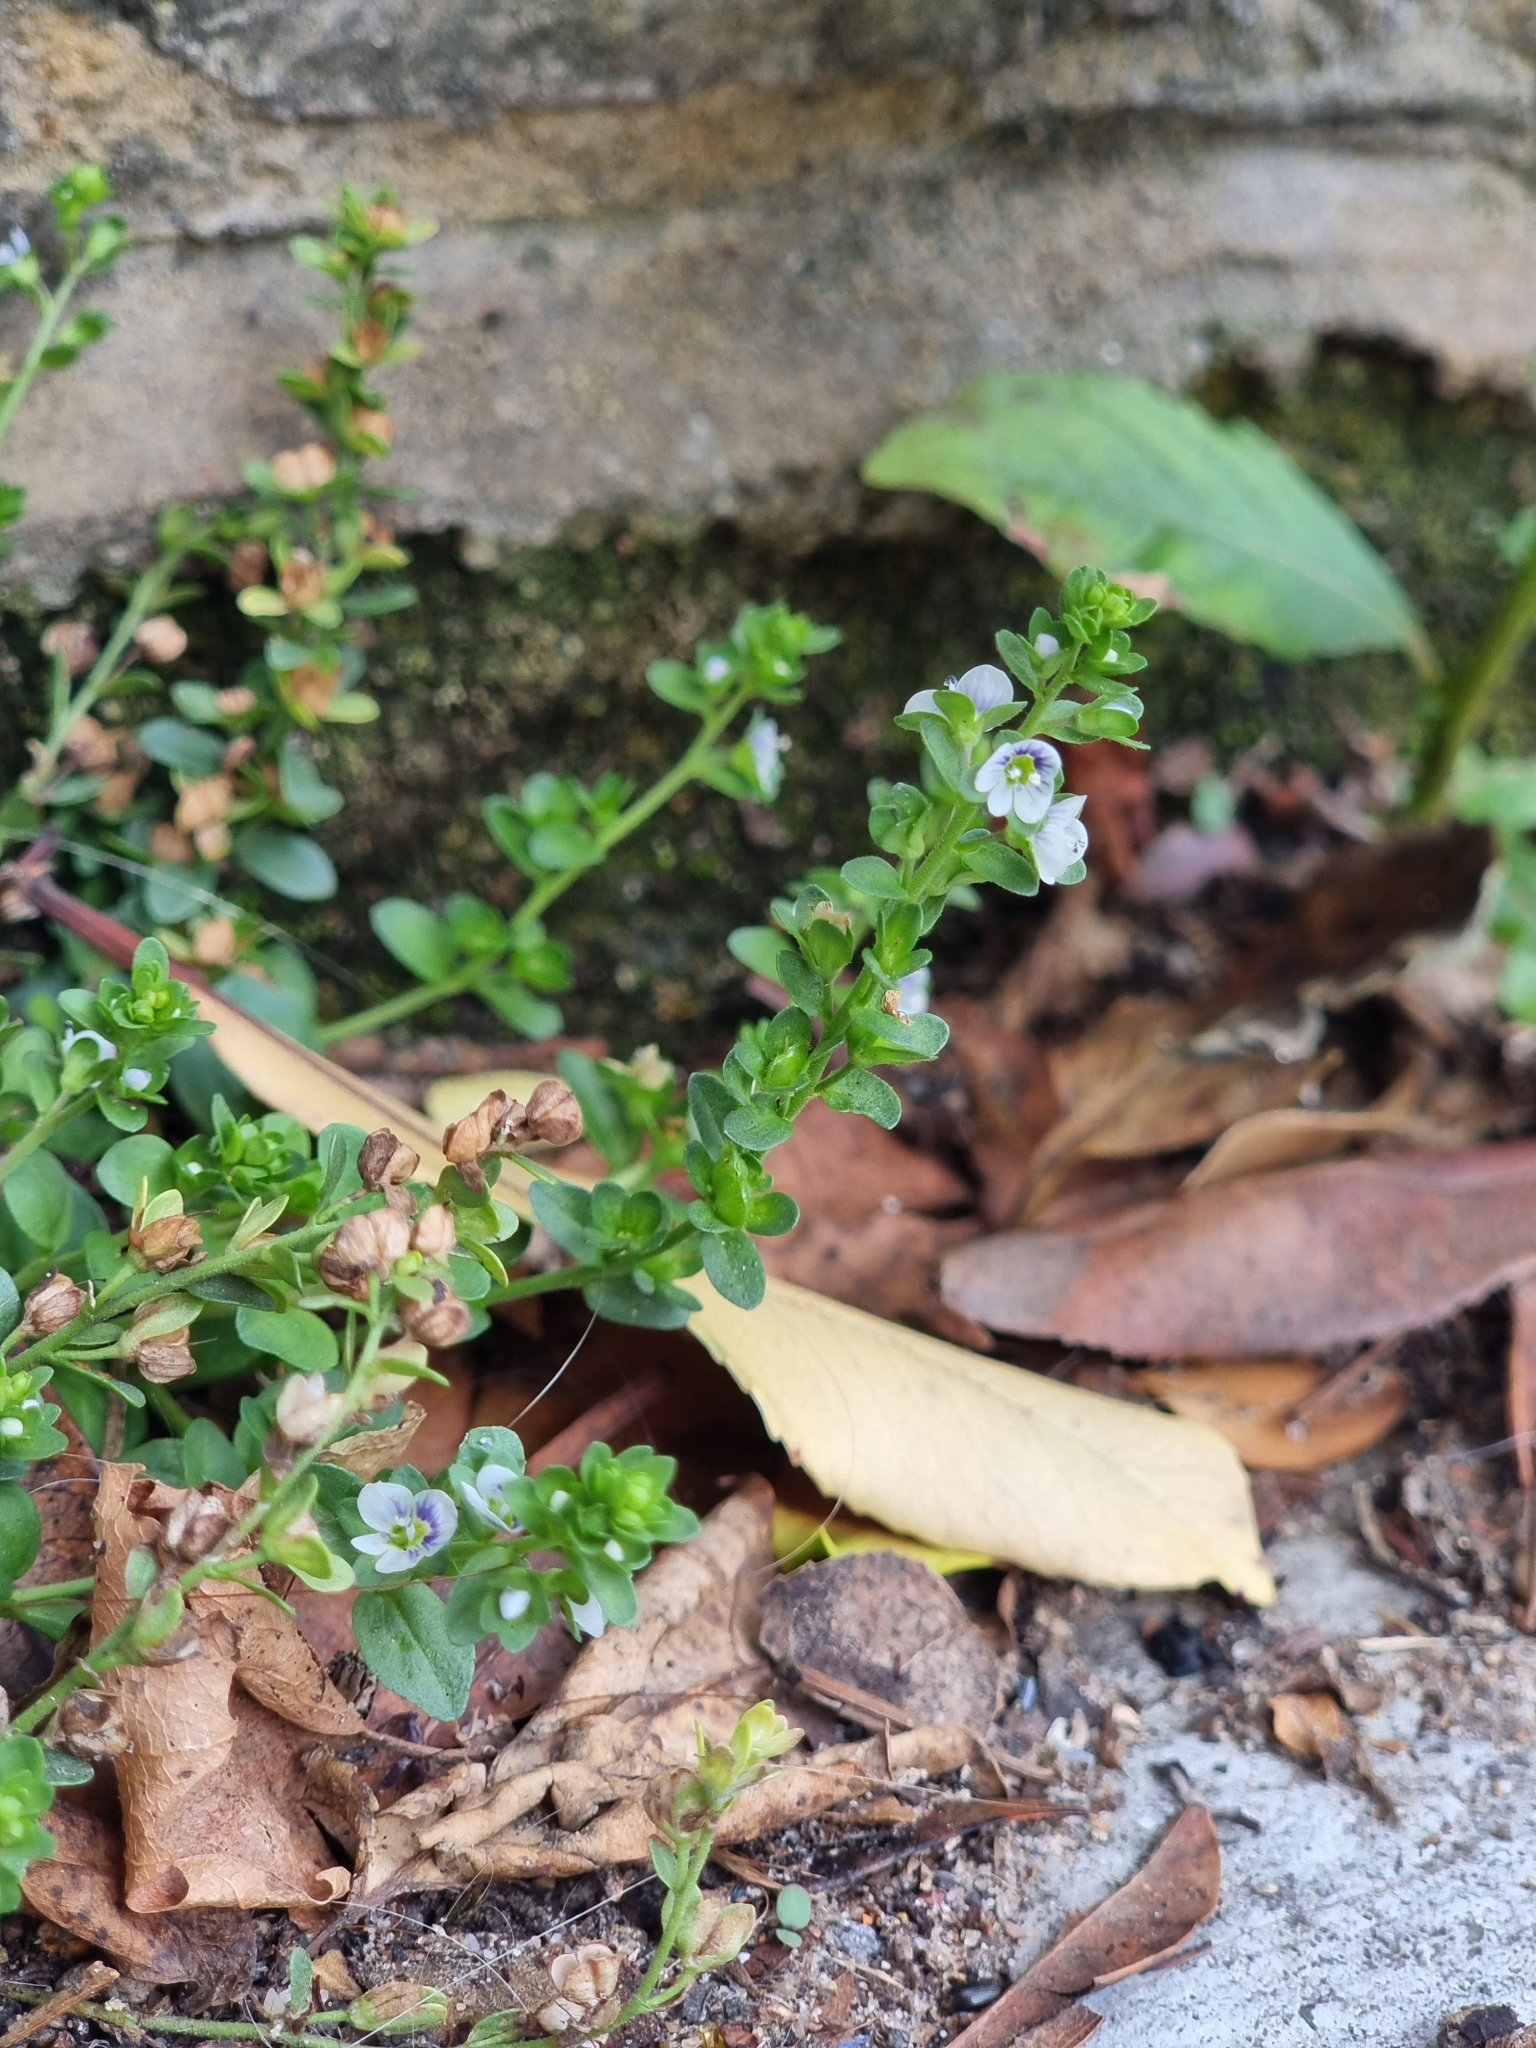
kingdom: Plantae
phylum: Tracheophyta
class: Magnoliopsida
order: Lamiales
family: Plantaginaceae
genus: Veronica
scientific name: Veronica serpyllifolia
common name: Thyme-leaved speedwell
